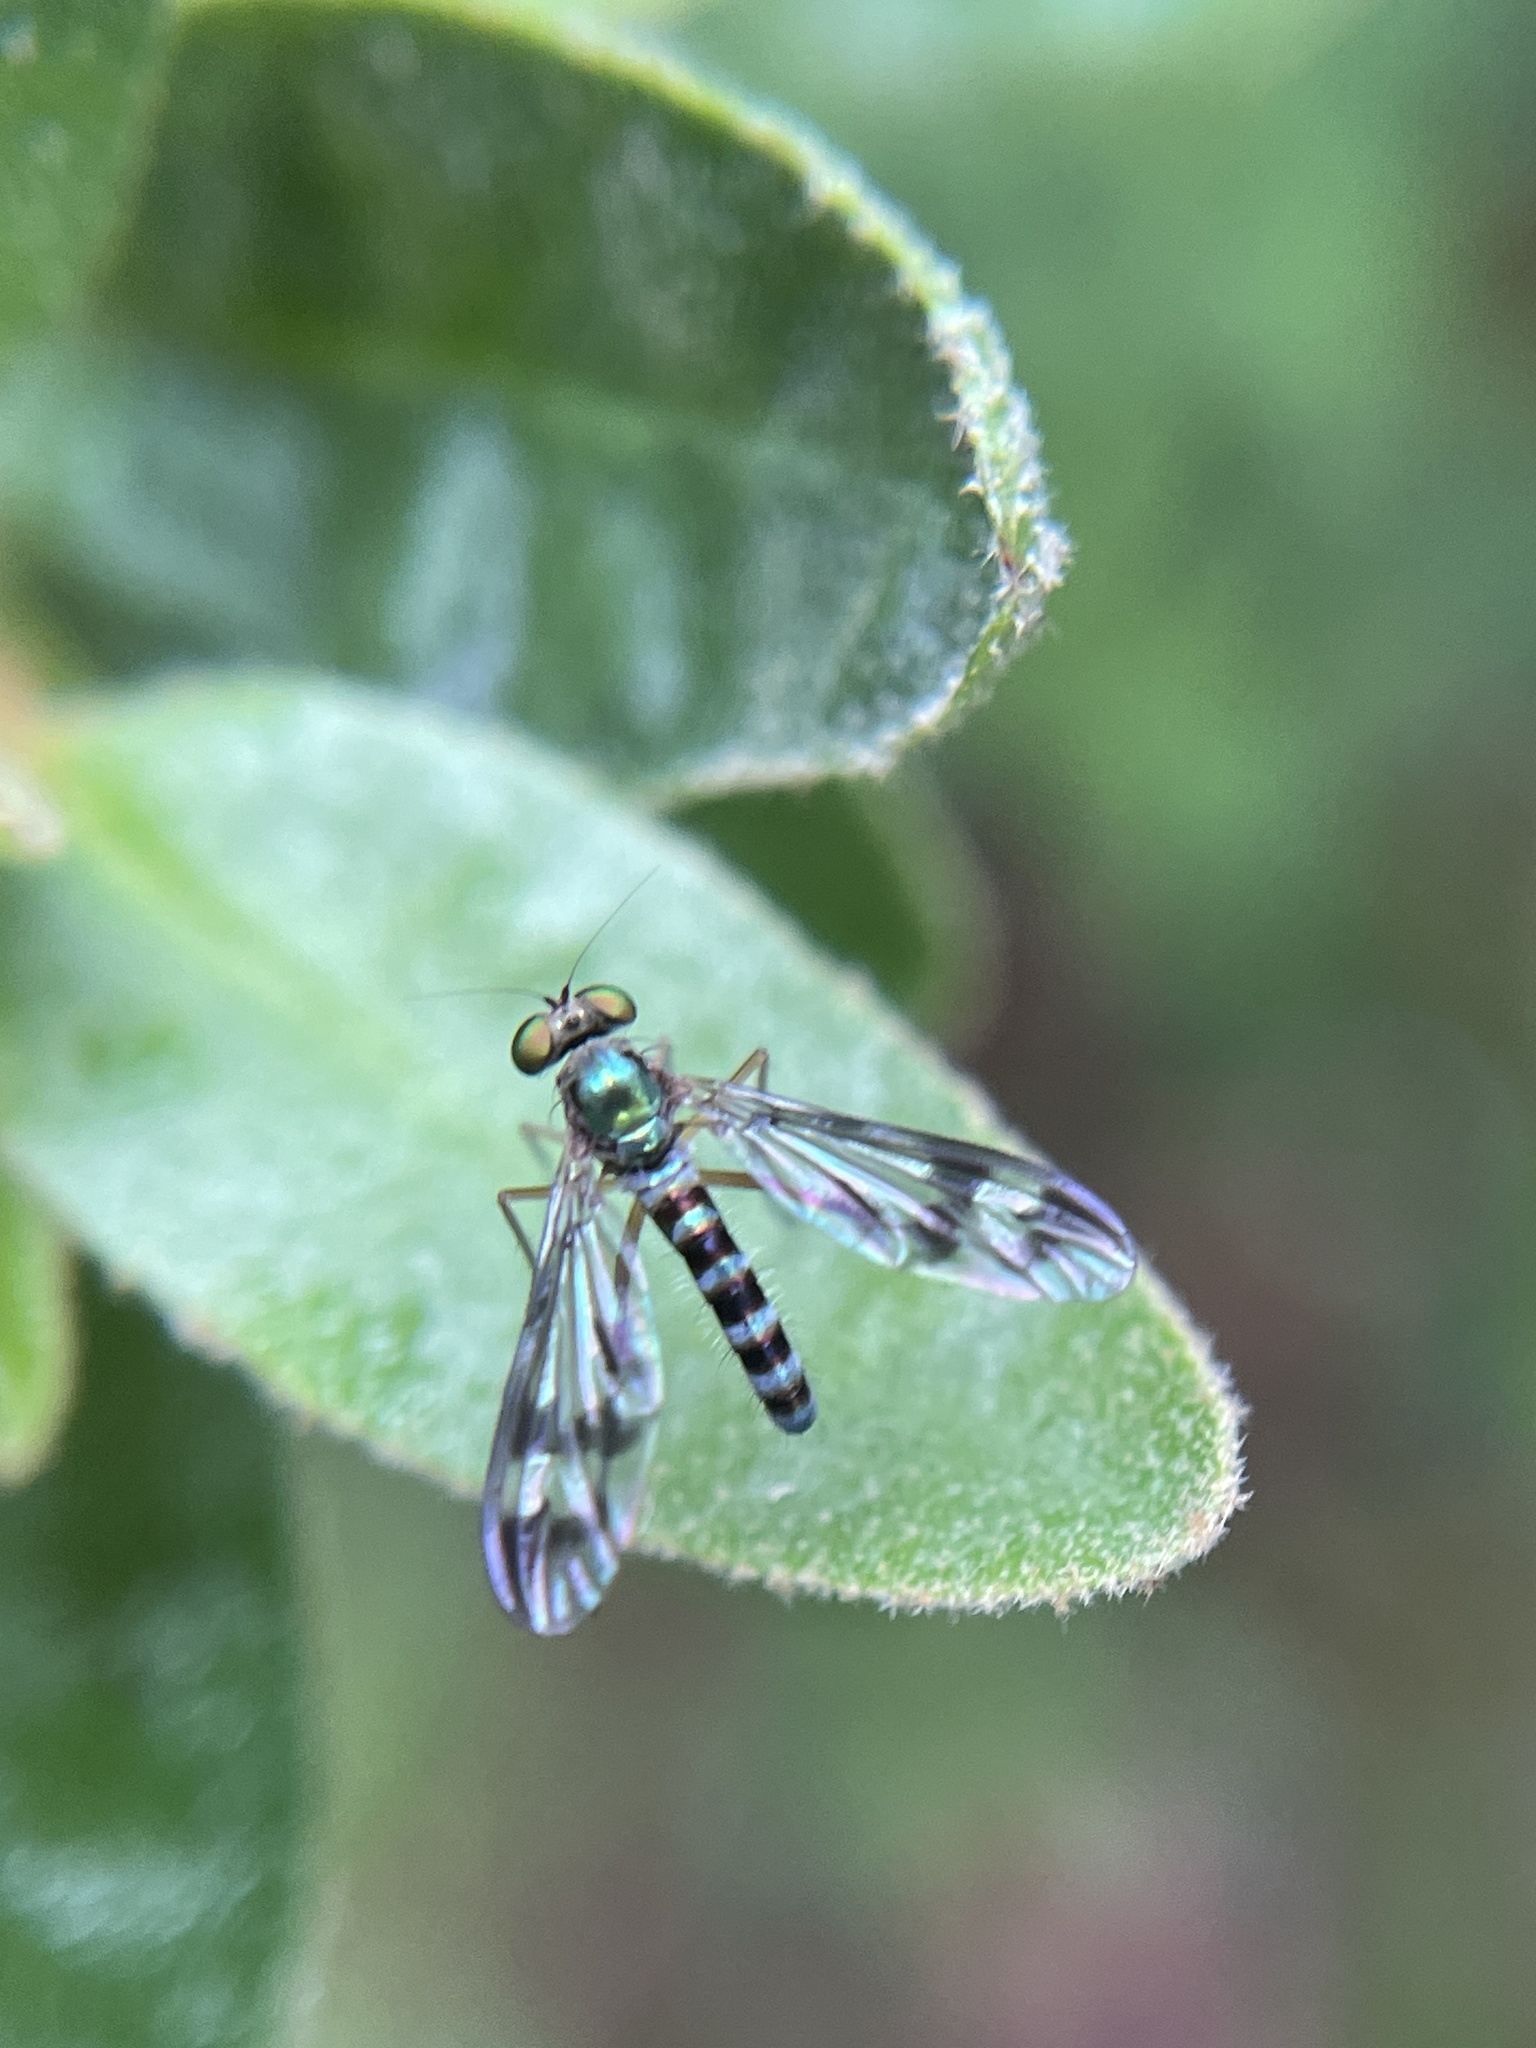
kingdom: Animalia
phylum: Arthropoda
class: Insecta
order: Diptera
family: Dolichopodidae
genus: Heteropsilopus
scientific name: Heteropsilopus ingenuum
